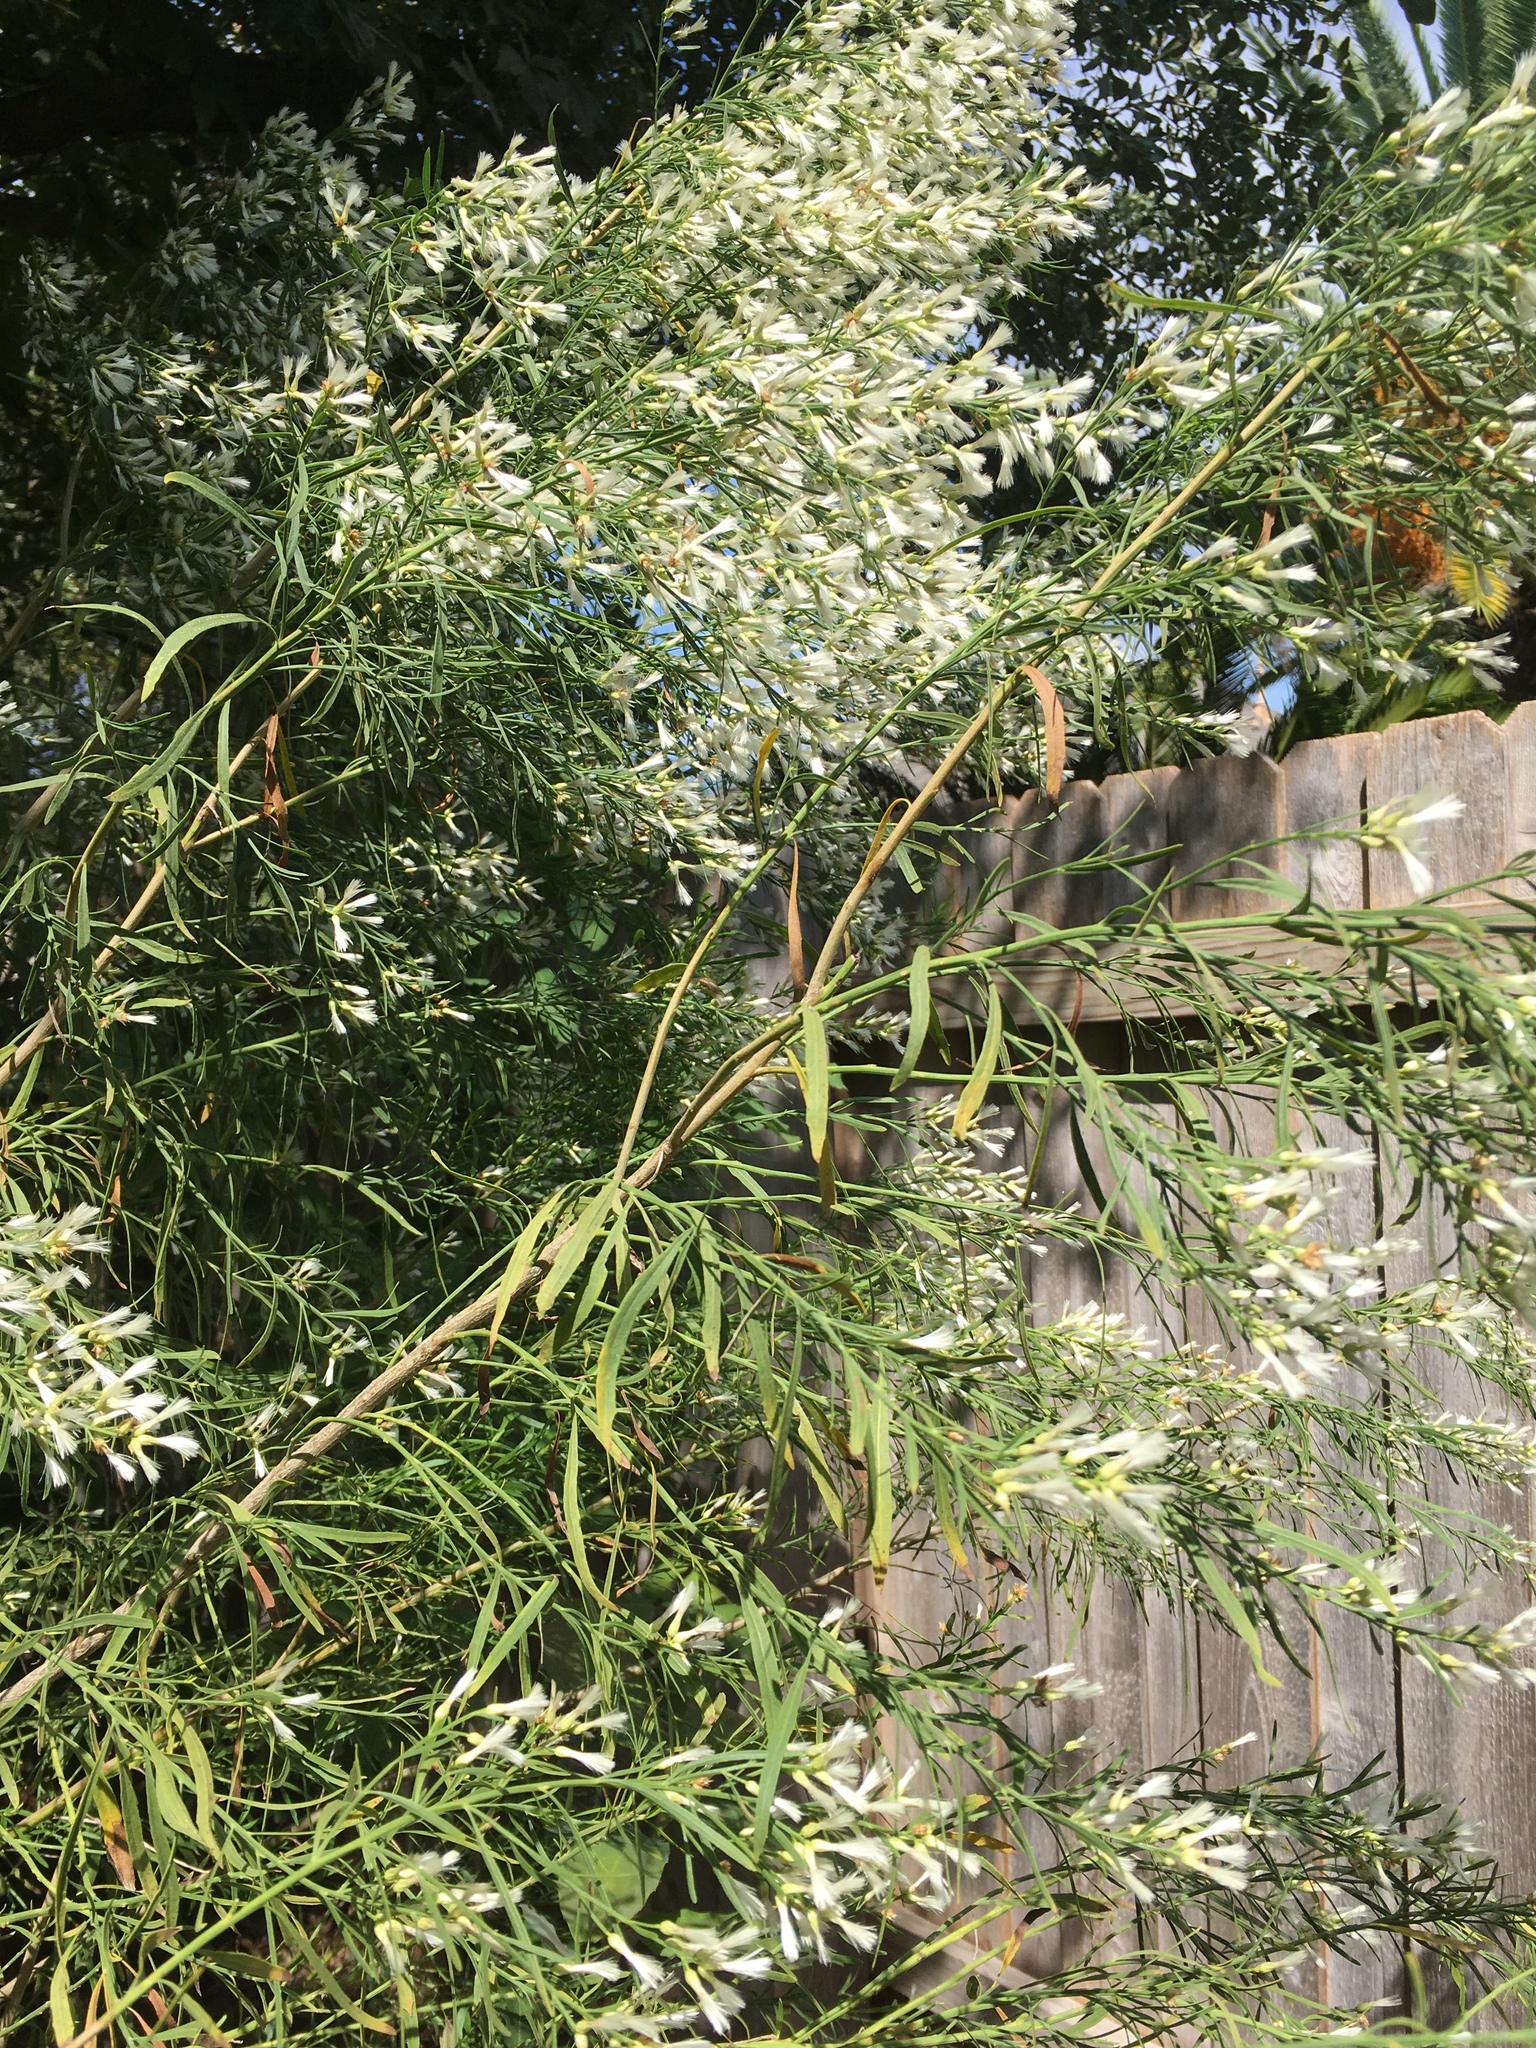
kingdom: Plantae
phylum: Tracheophyta
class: Magnoliopsida
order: Asterales
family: Asteraceae
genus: Baccharis
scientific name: Baccharis neglecta
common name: Roosevelt-weed
